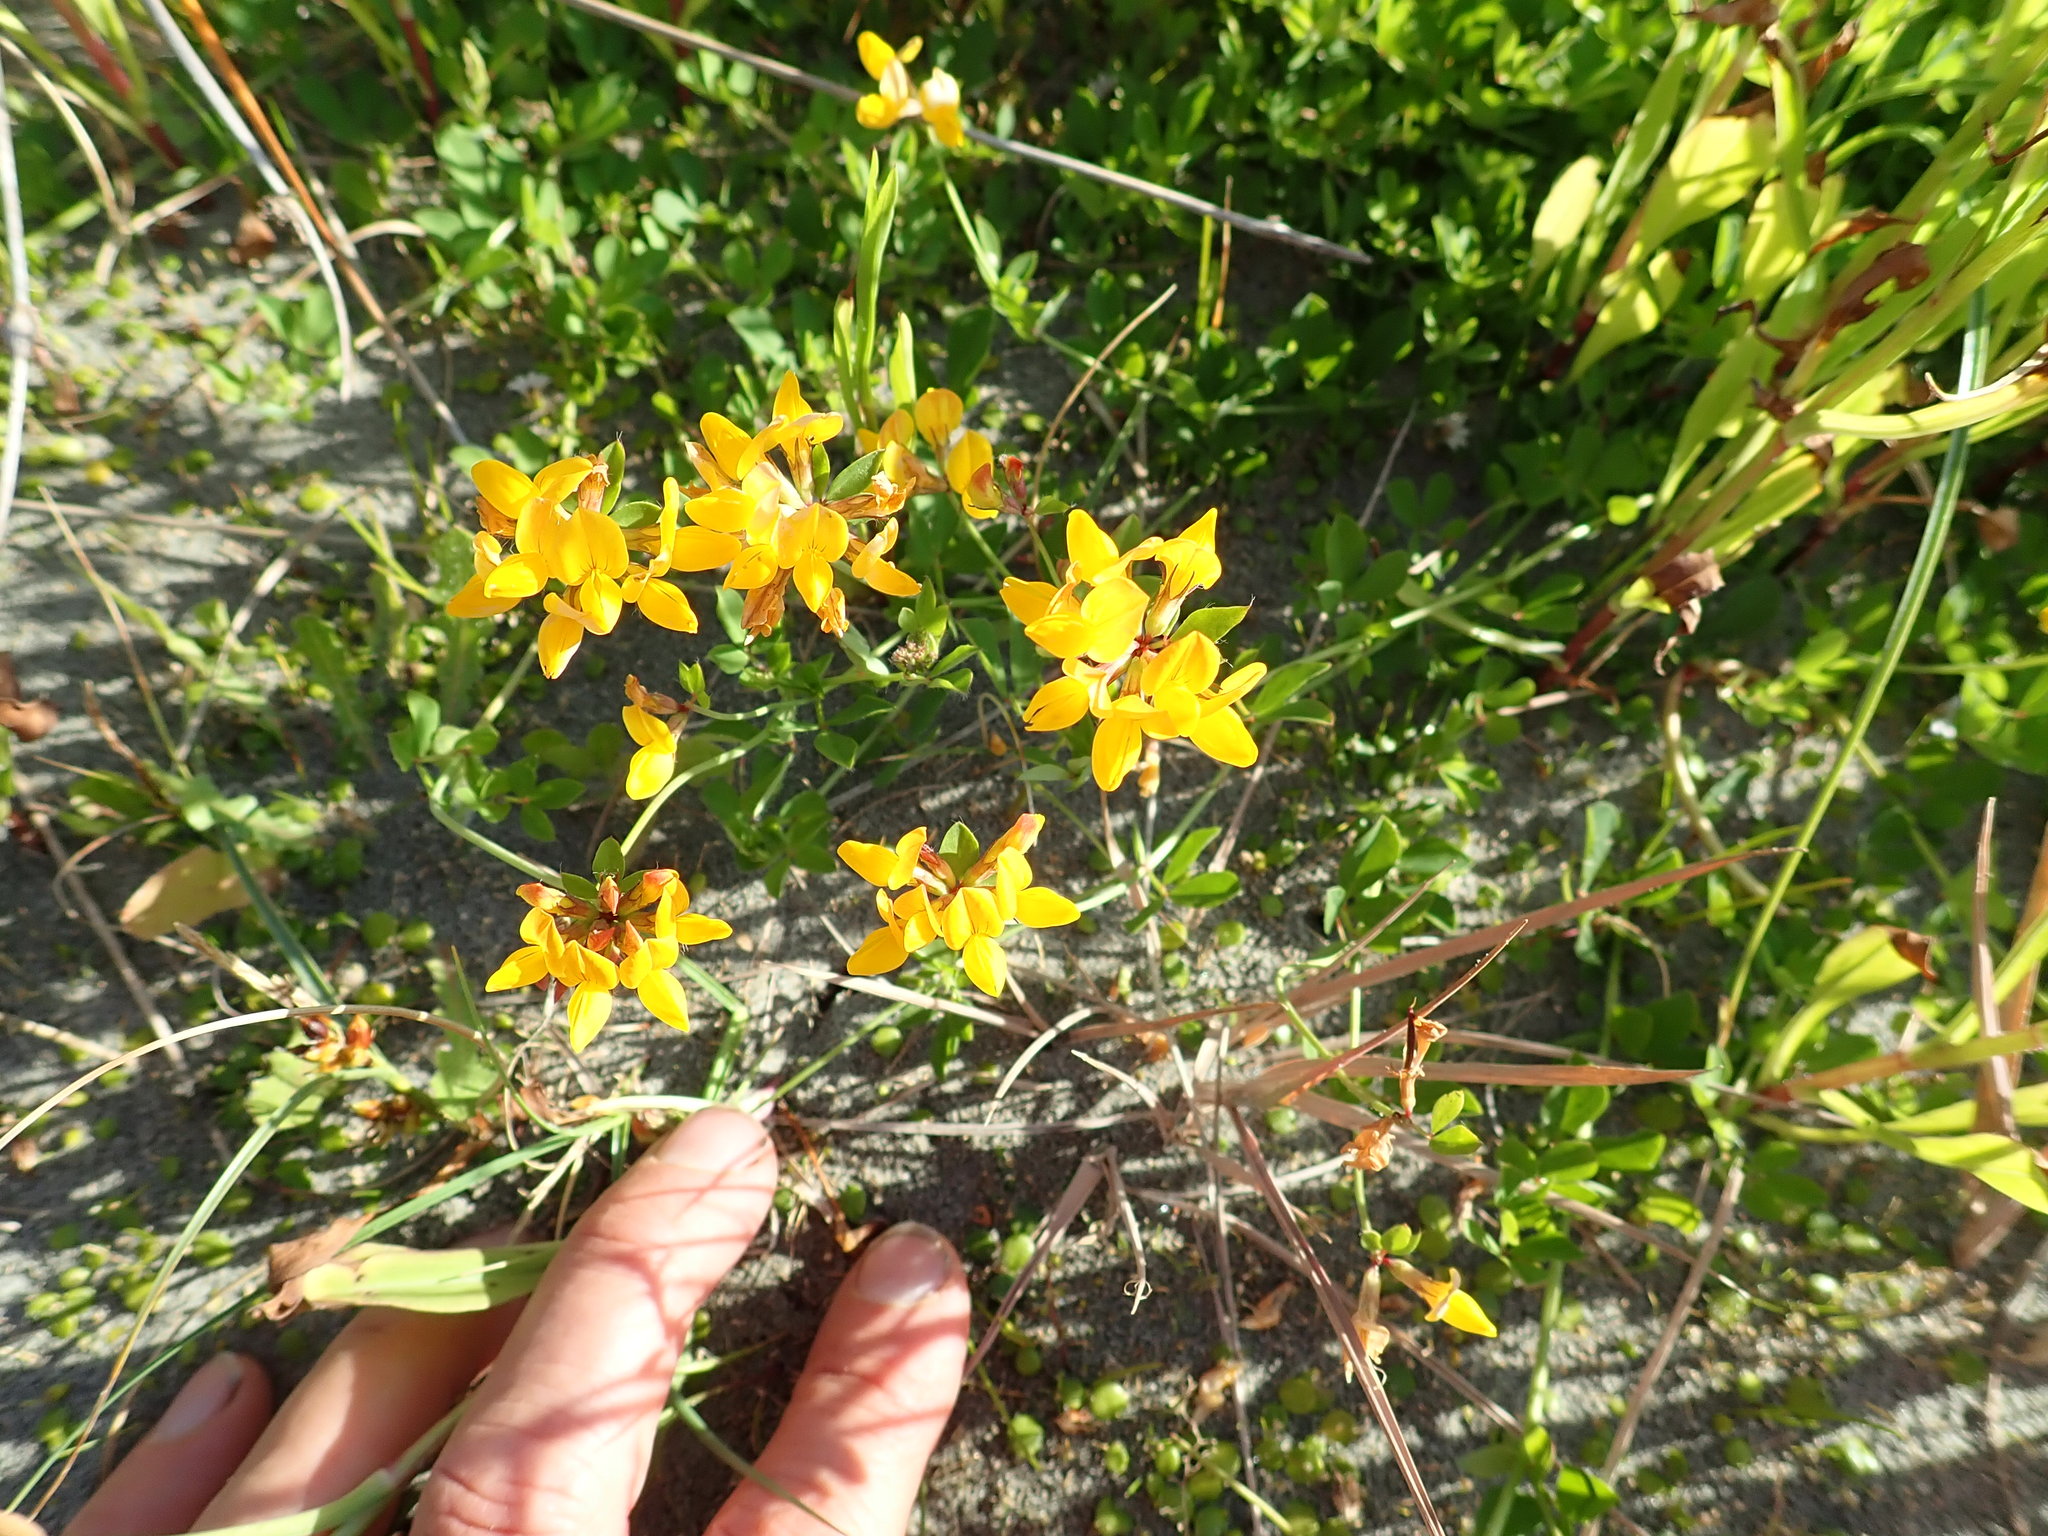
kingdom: Plantae
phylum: Tracheophyta
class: Magnoliopsida
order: Fabales
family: Fabaceae
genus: Lotus
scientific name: Lotus pedunculatus
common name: Greater birdsfoot-trefoil
